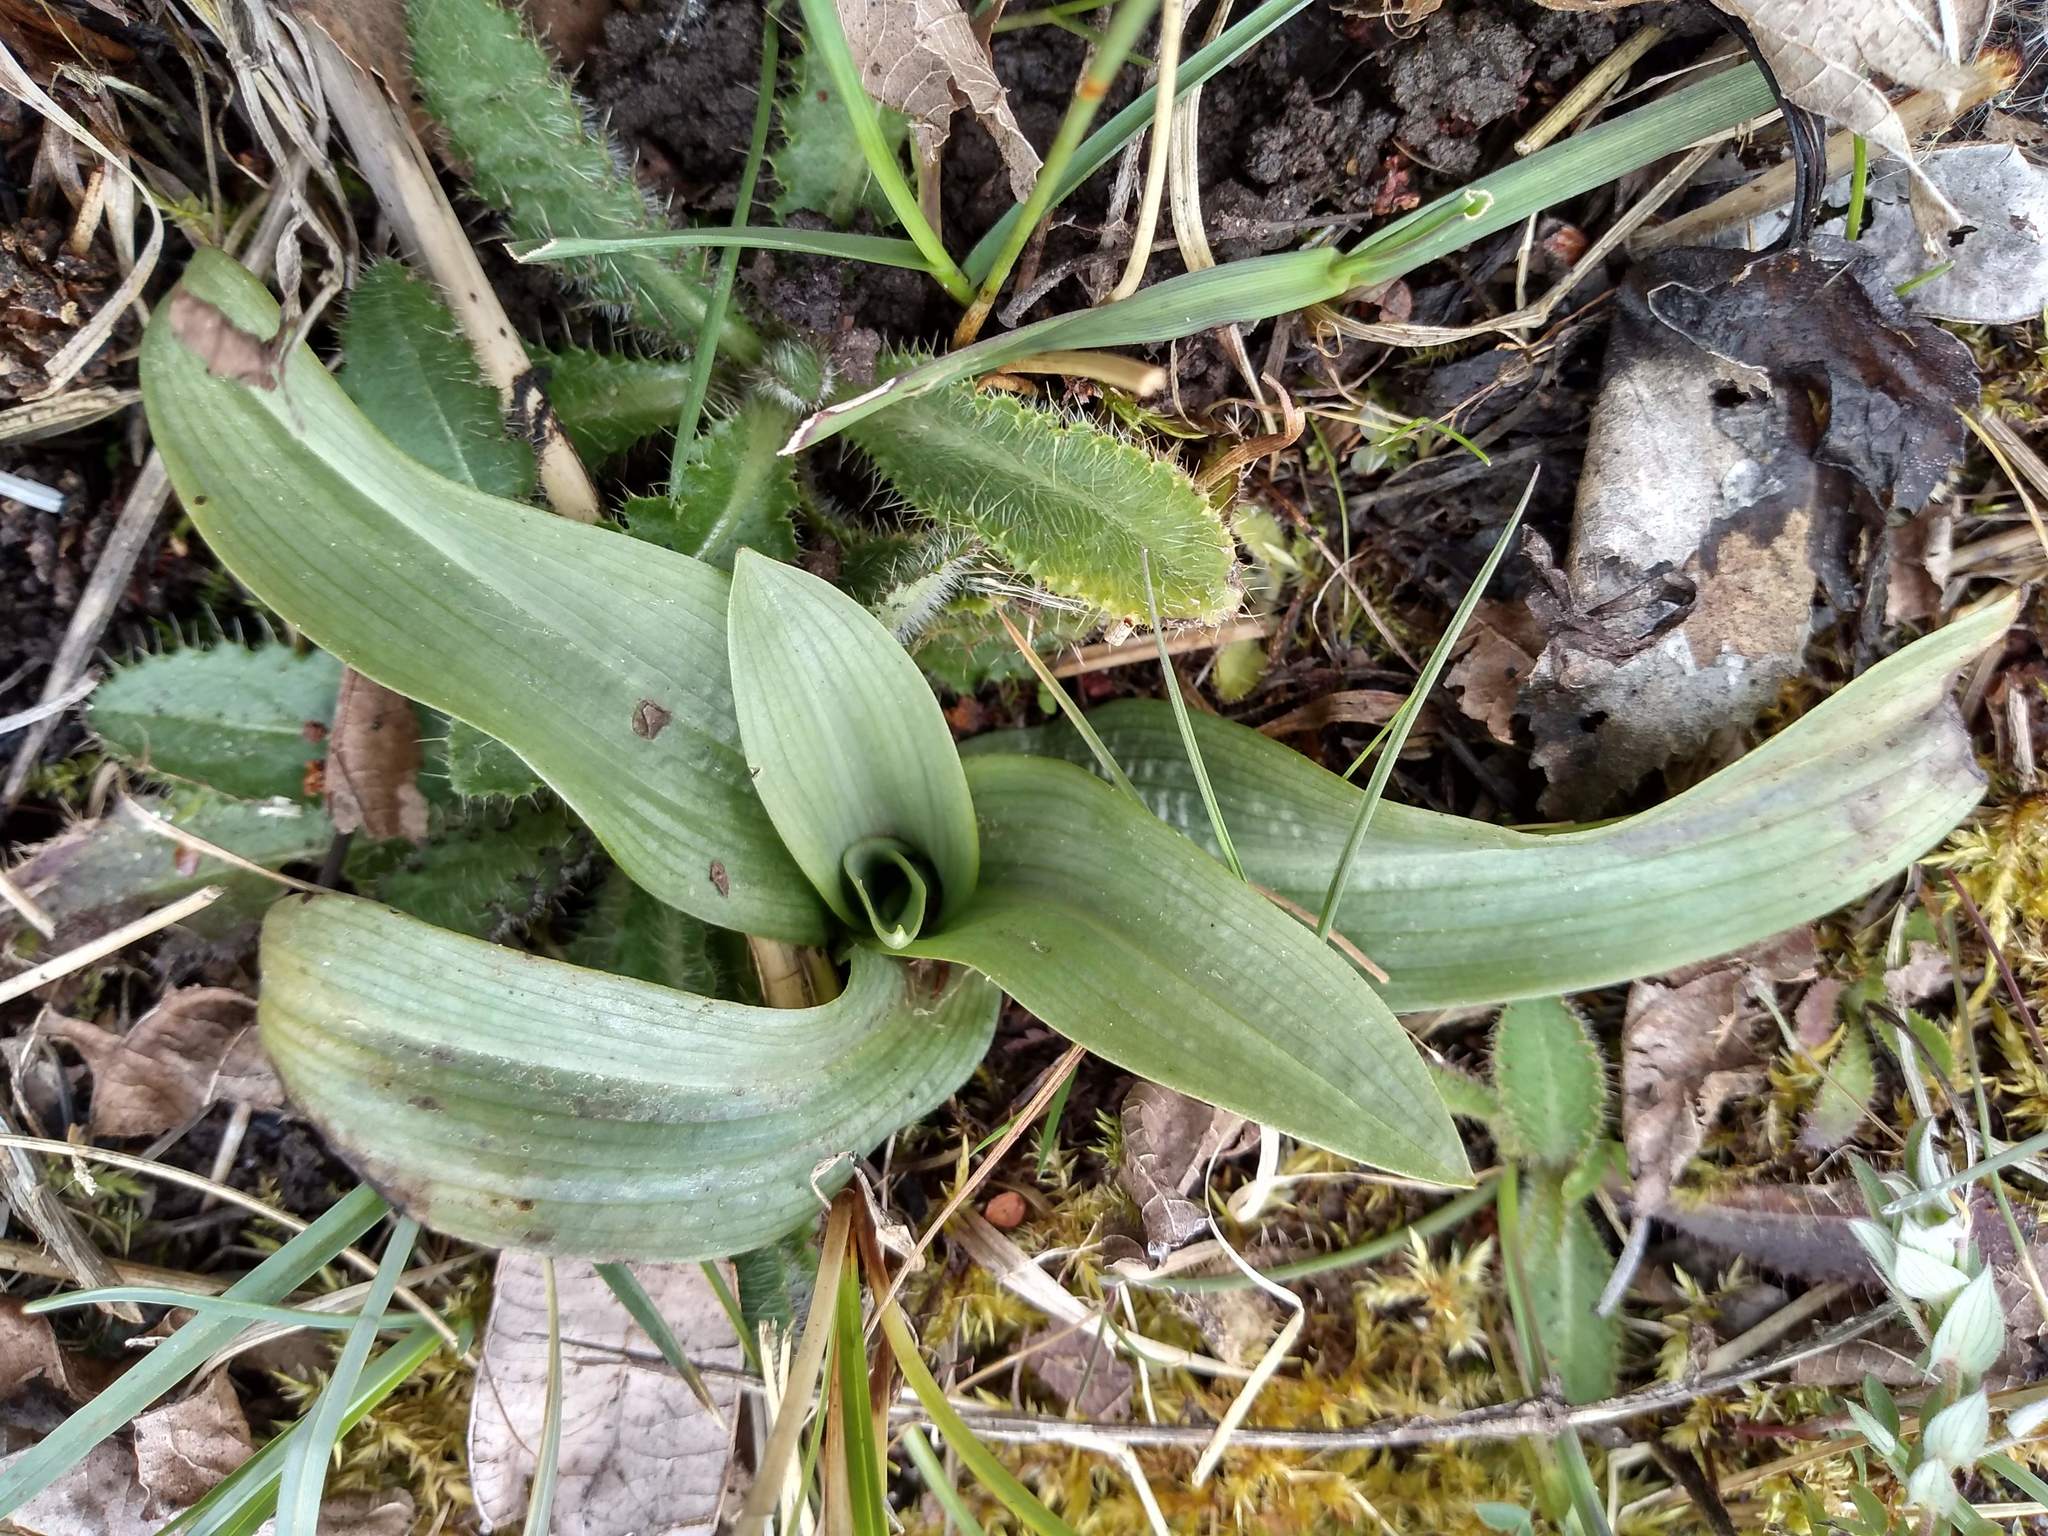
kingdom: Plantae
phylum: Tracheophyta
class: Liliopsida
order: Asparagales
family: Orchidaceae
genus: Ophrys
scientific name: Ophrys apifera
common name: Bee orchid
